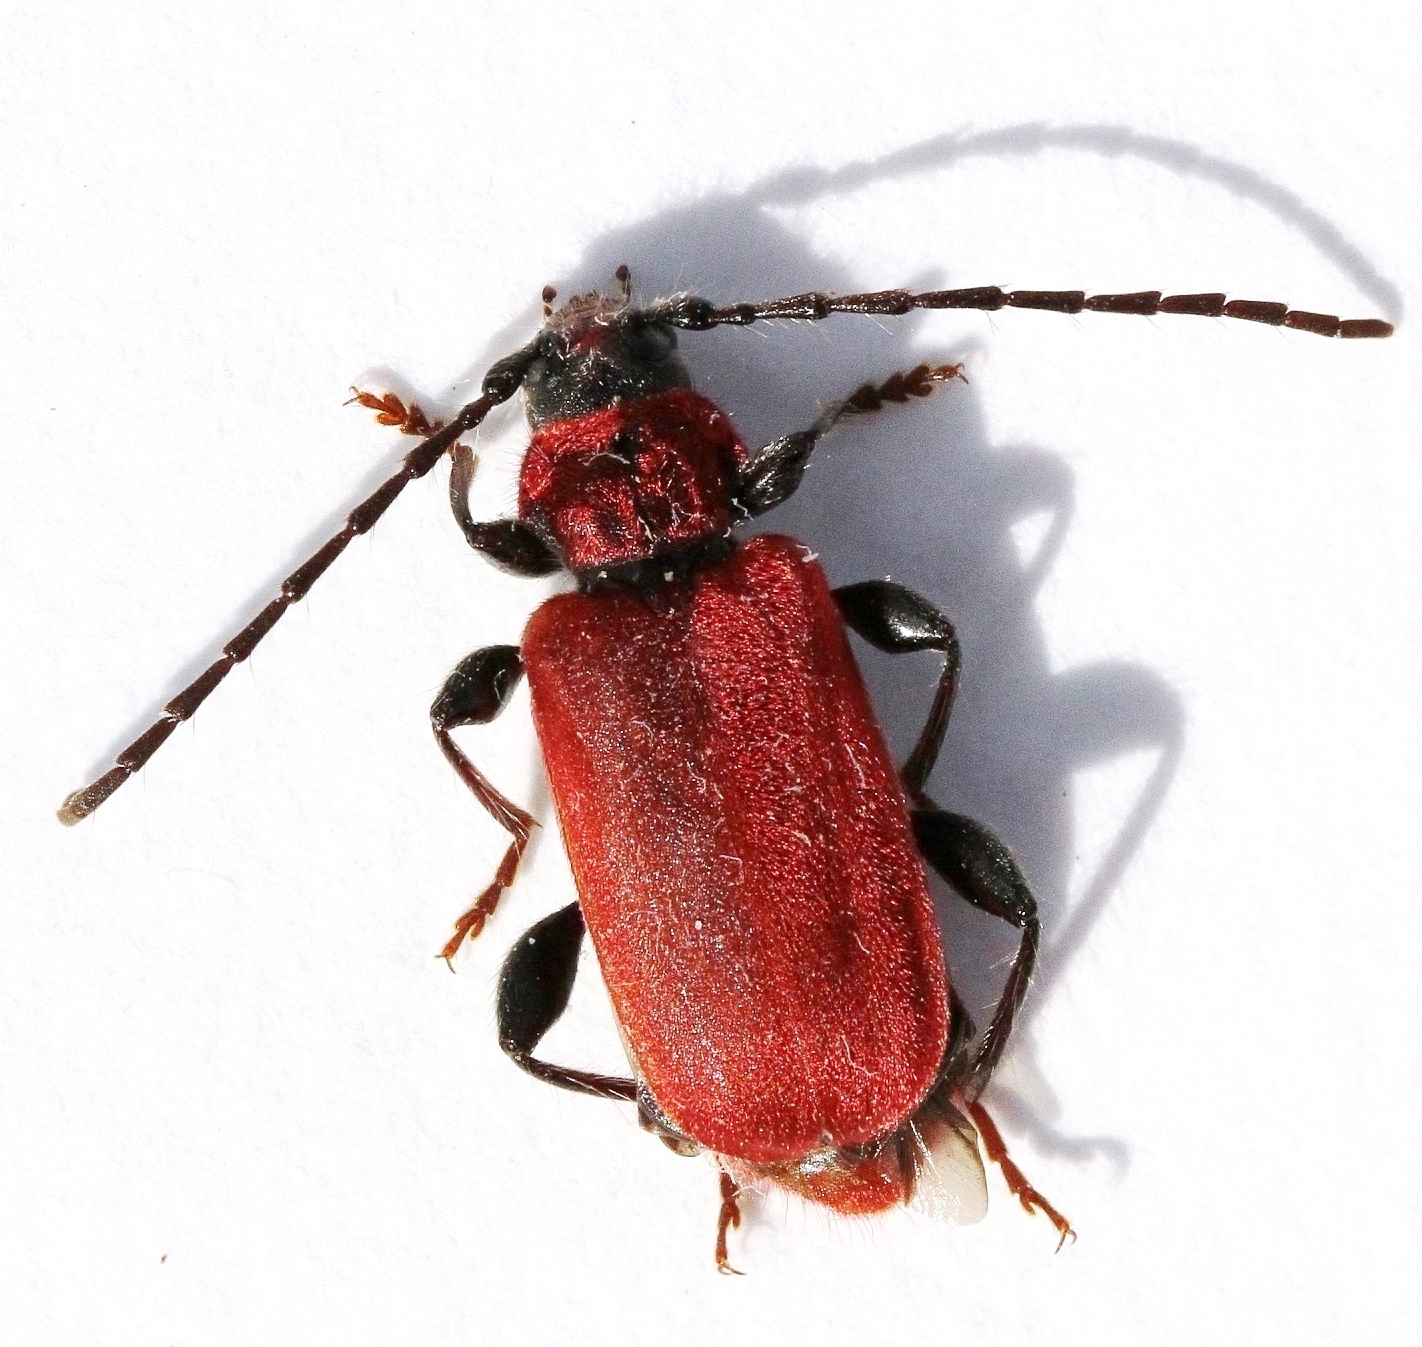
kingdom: Animalia
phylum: Arthropoda
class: Insecta
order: Coleoptera
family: Cerambycidae
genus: Pyrrhidium
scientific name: Pyrrhidium sanguineum
